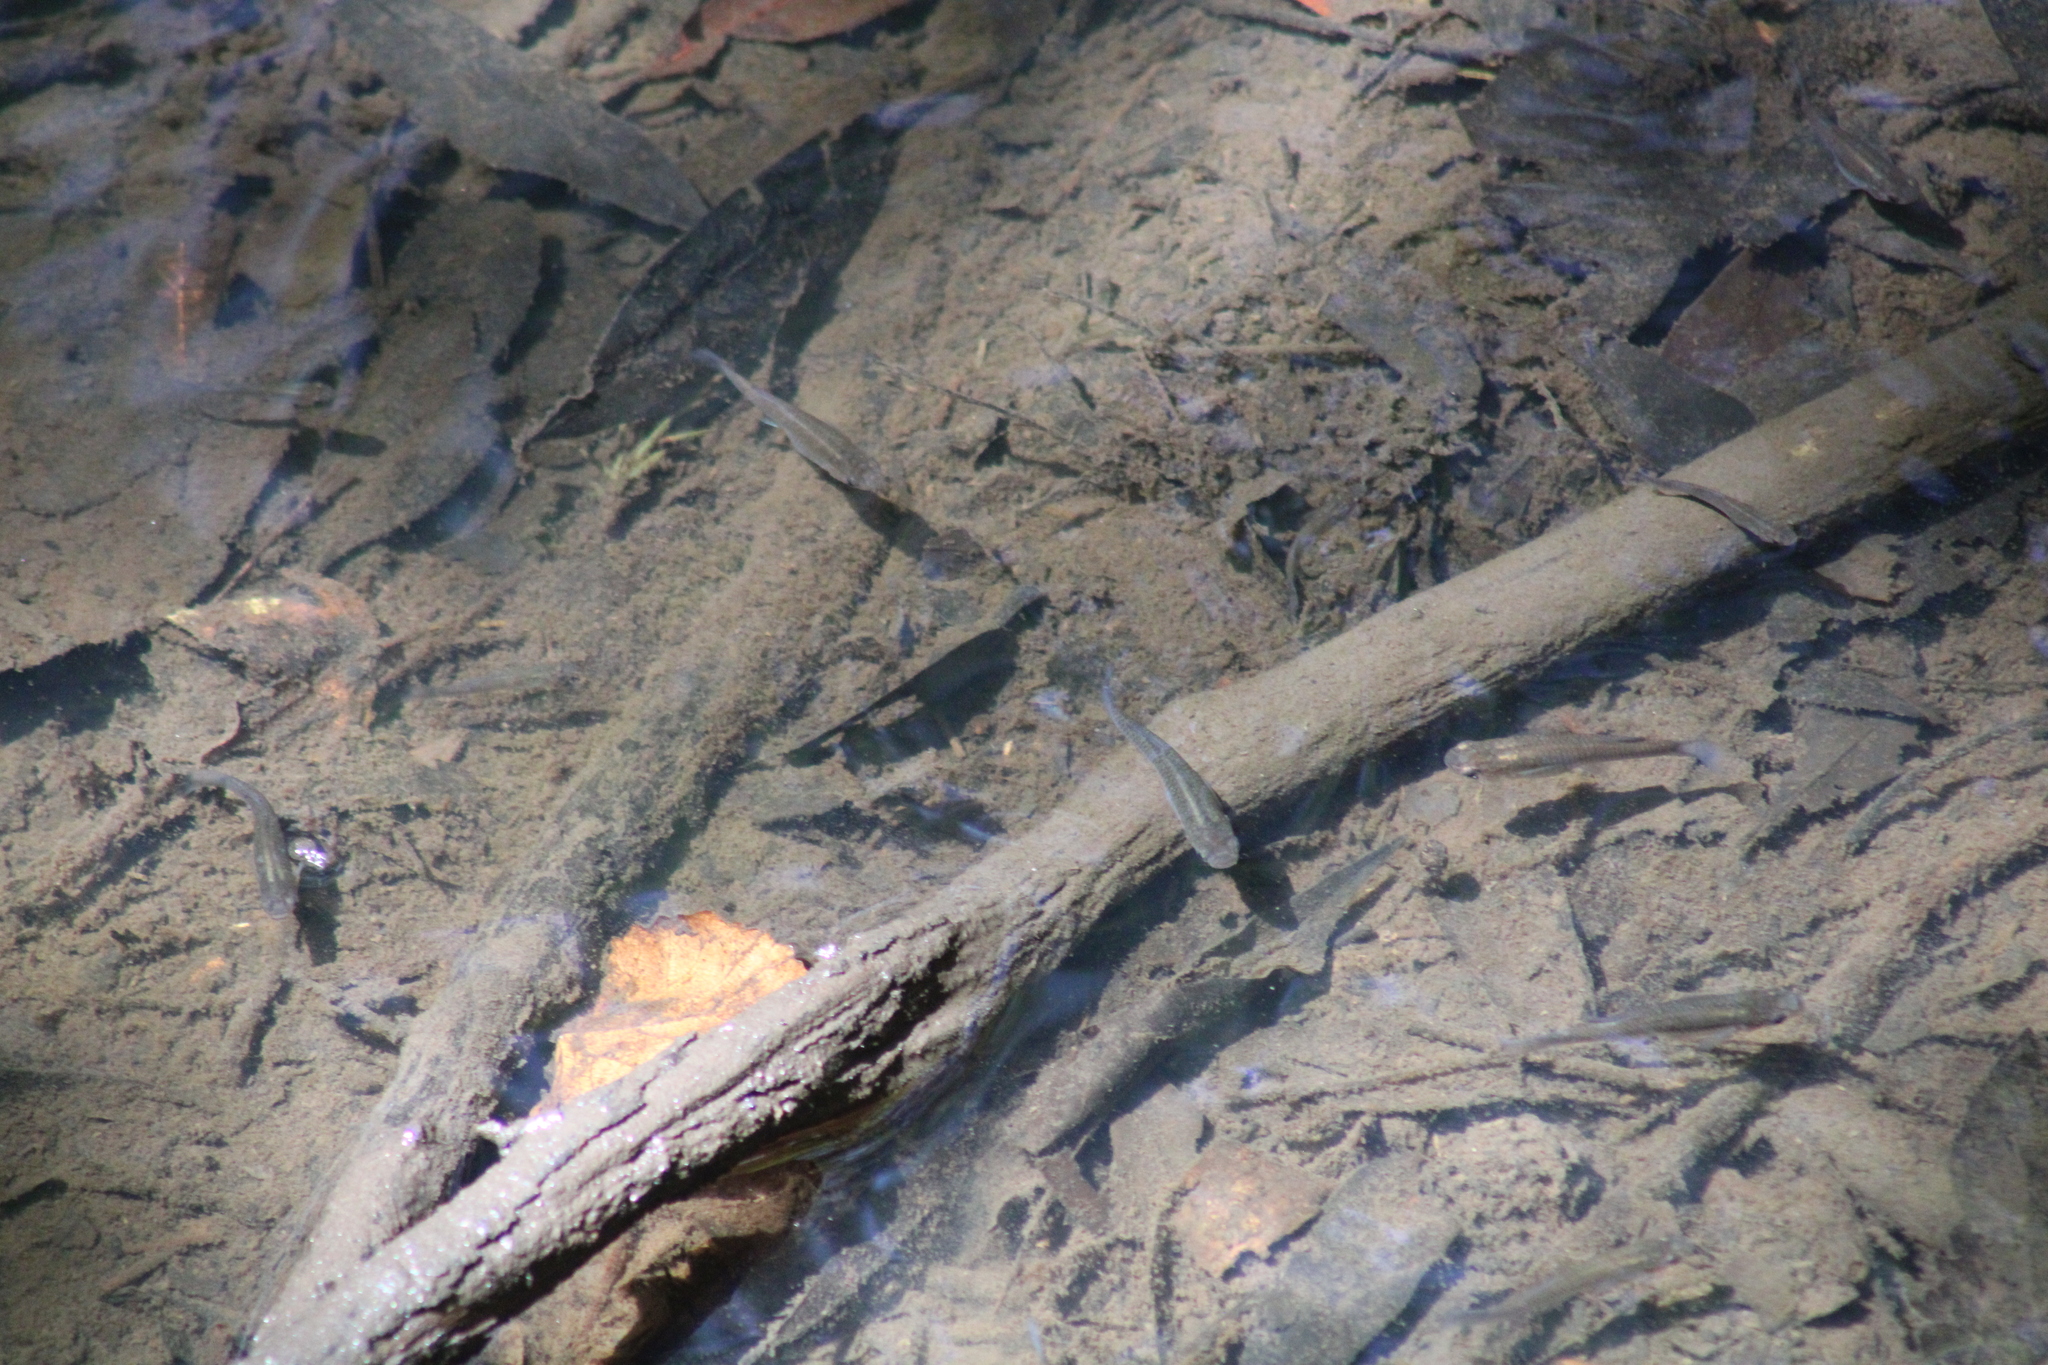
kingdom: Animalia
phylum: Chordata
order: Cyprinodontiformes
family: Poeciliidae
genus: Gambusia
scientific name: Gambusia holbrooki
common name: Eastern mosquitofish
